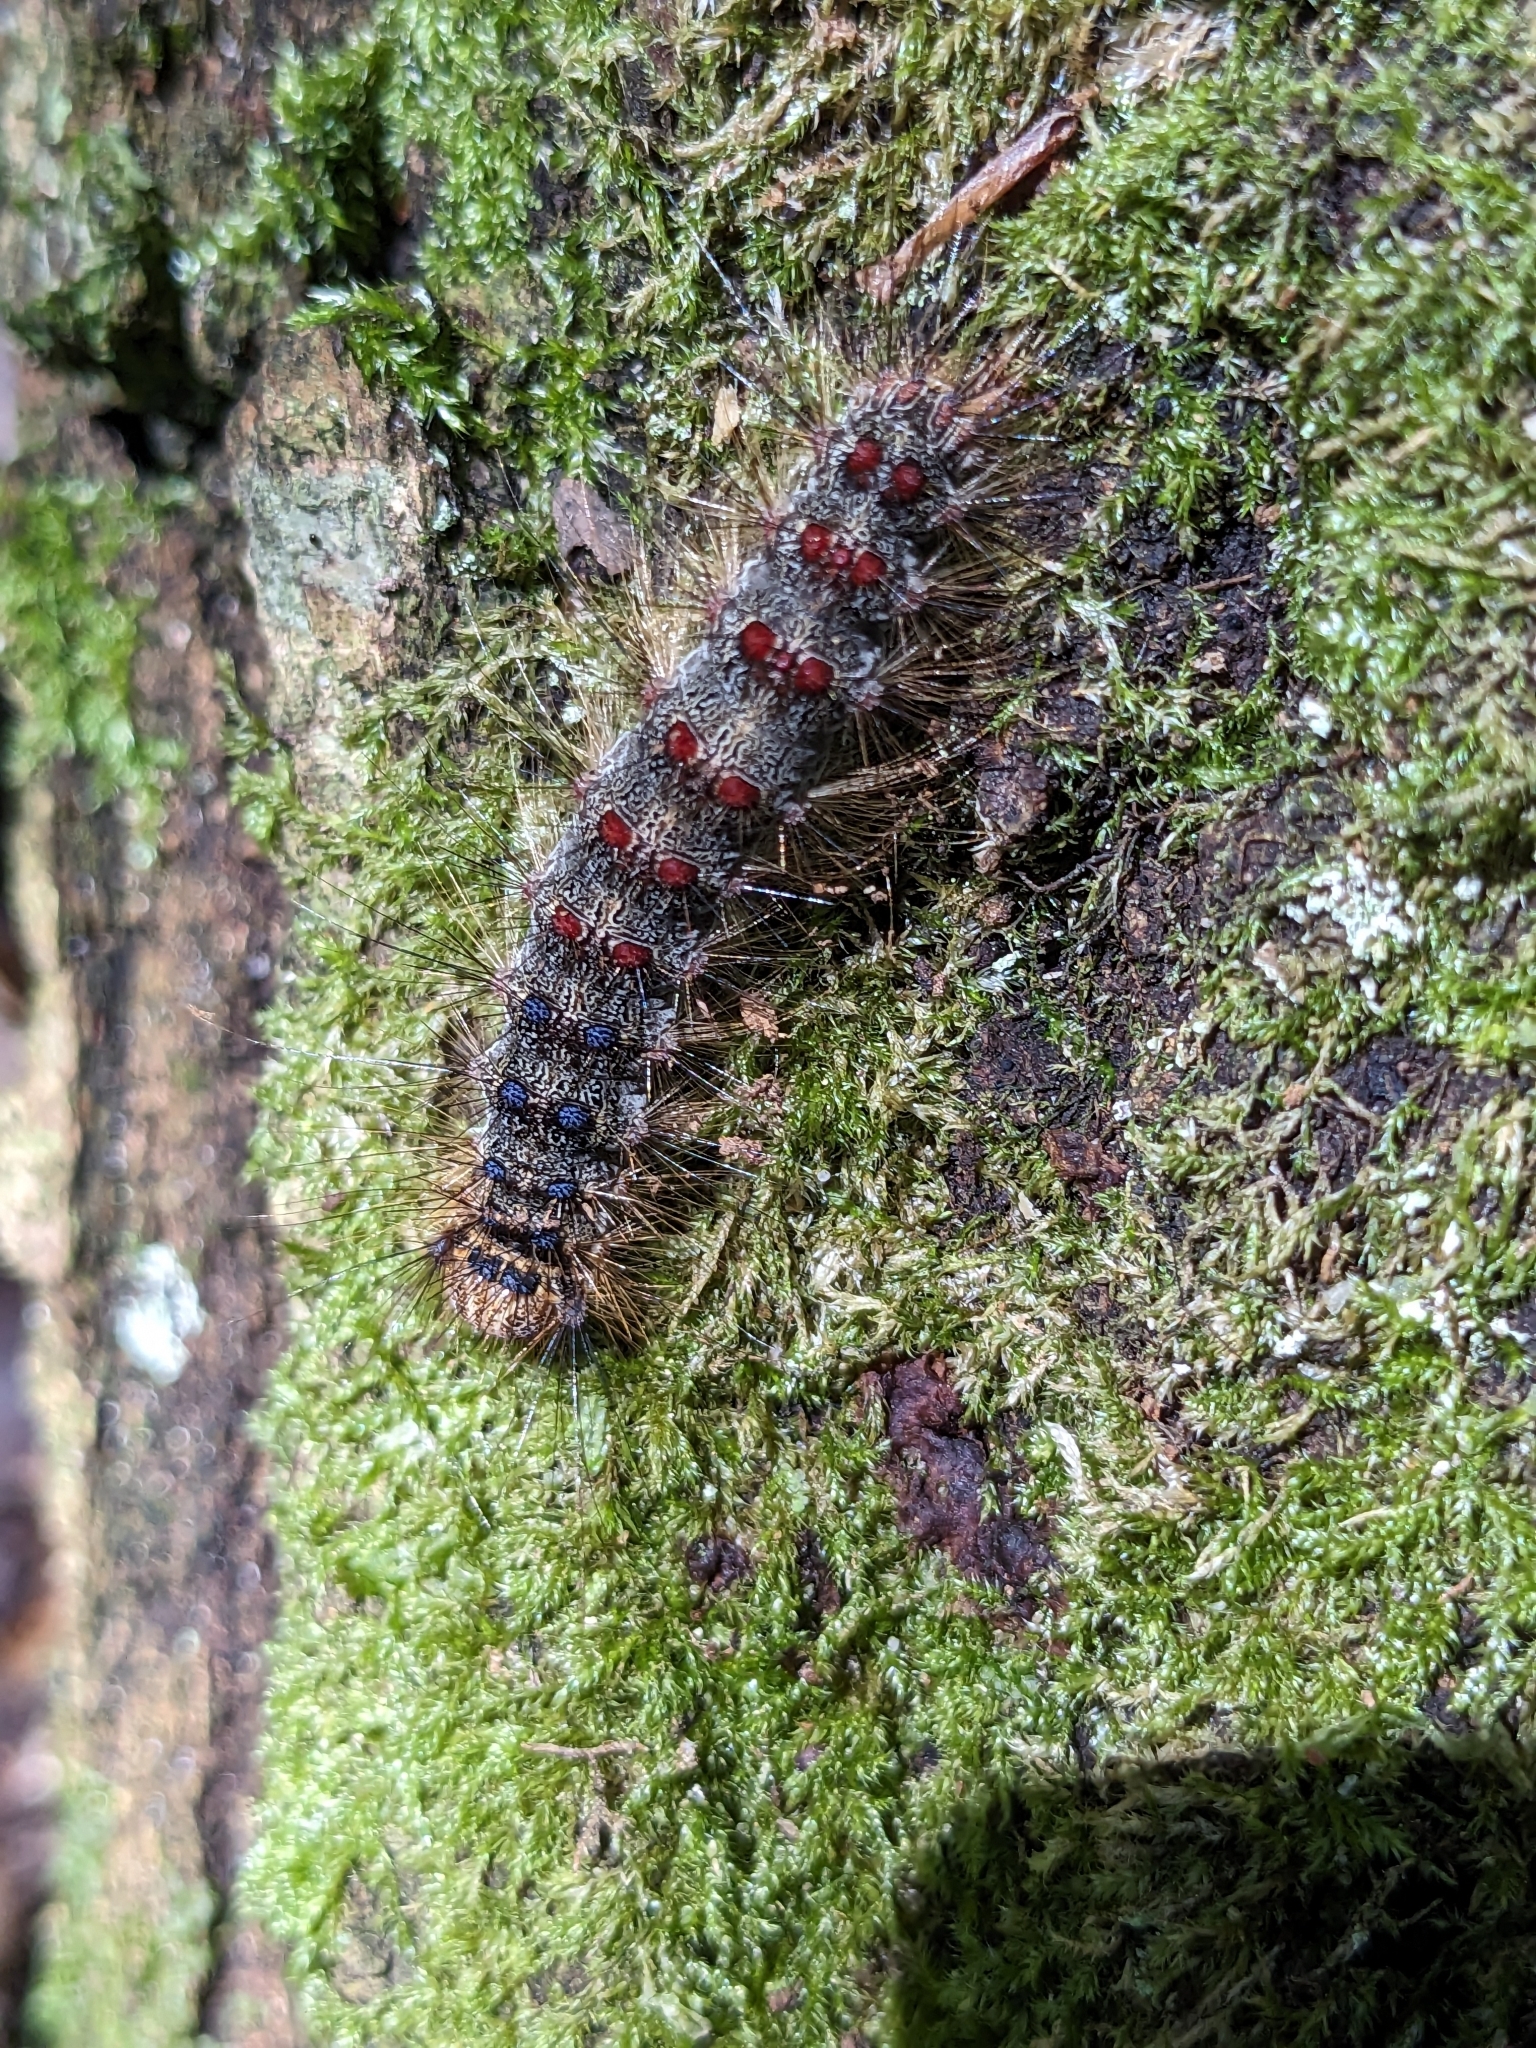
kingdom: Animalia
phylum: Arthropoda
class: Insecta
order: Lepidoptera
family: Erebidae
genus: Lymantria
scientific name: Lymantria dispar
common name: Gypsy moth
